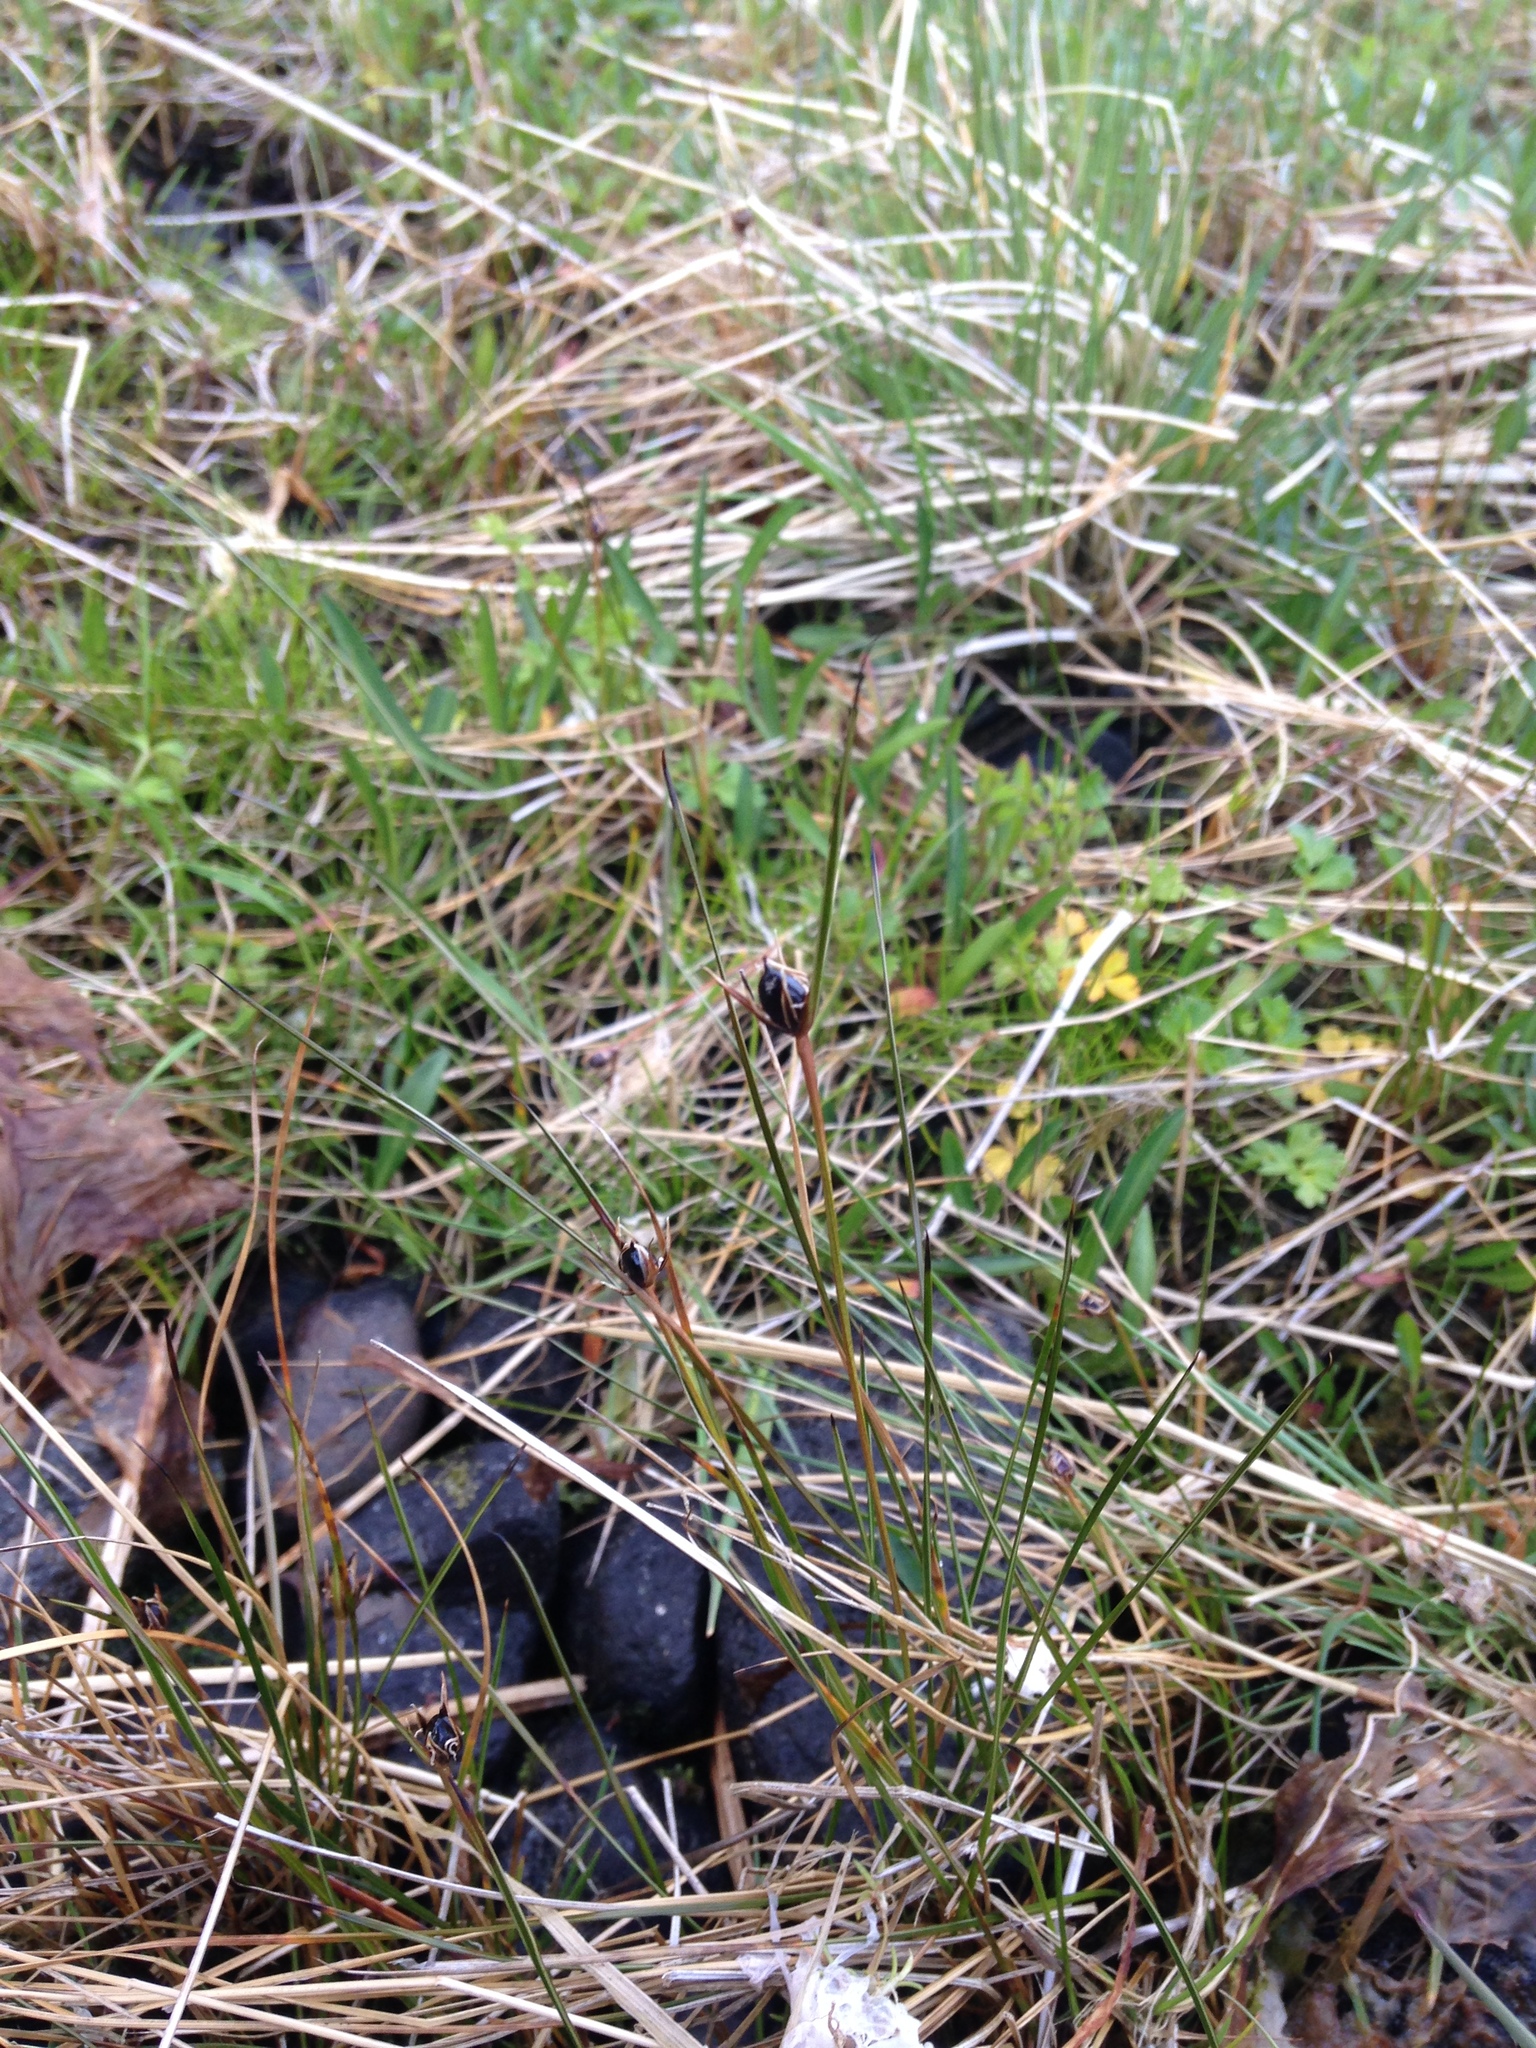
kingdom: Plantae
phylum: Tracheophyta
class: Liliopsida
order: Poales
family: Juncaceae
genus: Rostkovia
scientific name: Rostkovia magellanica
